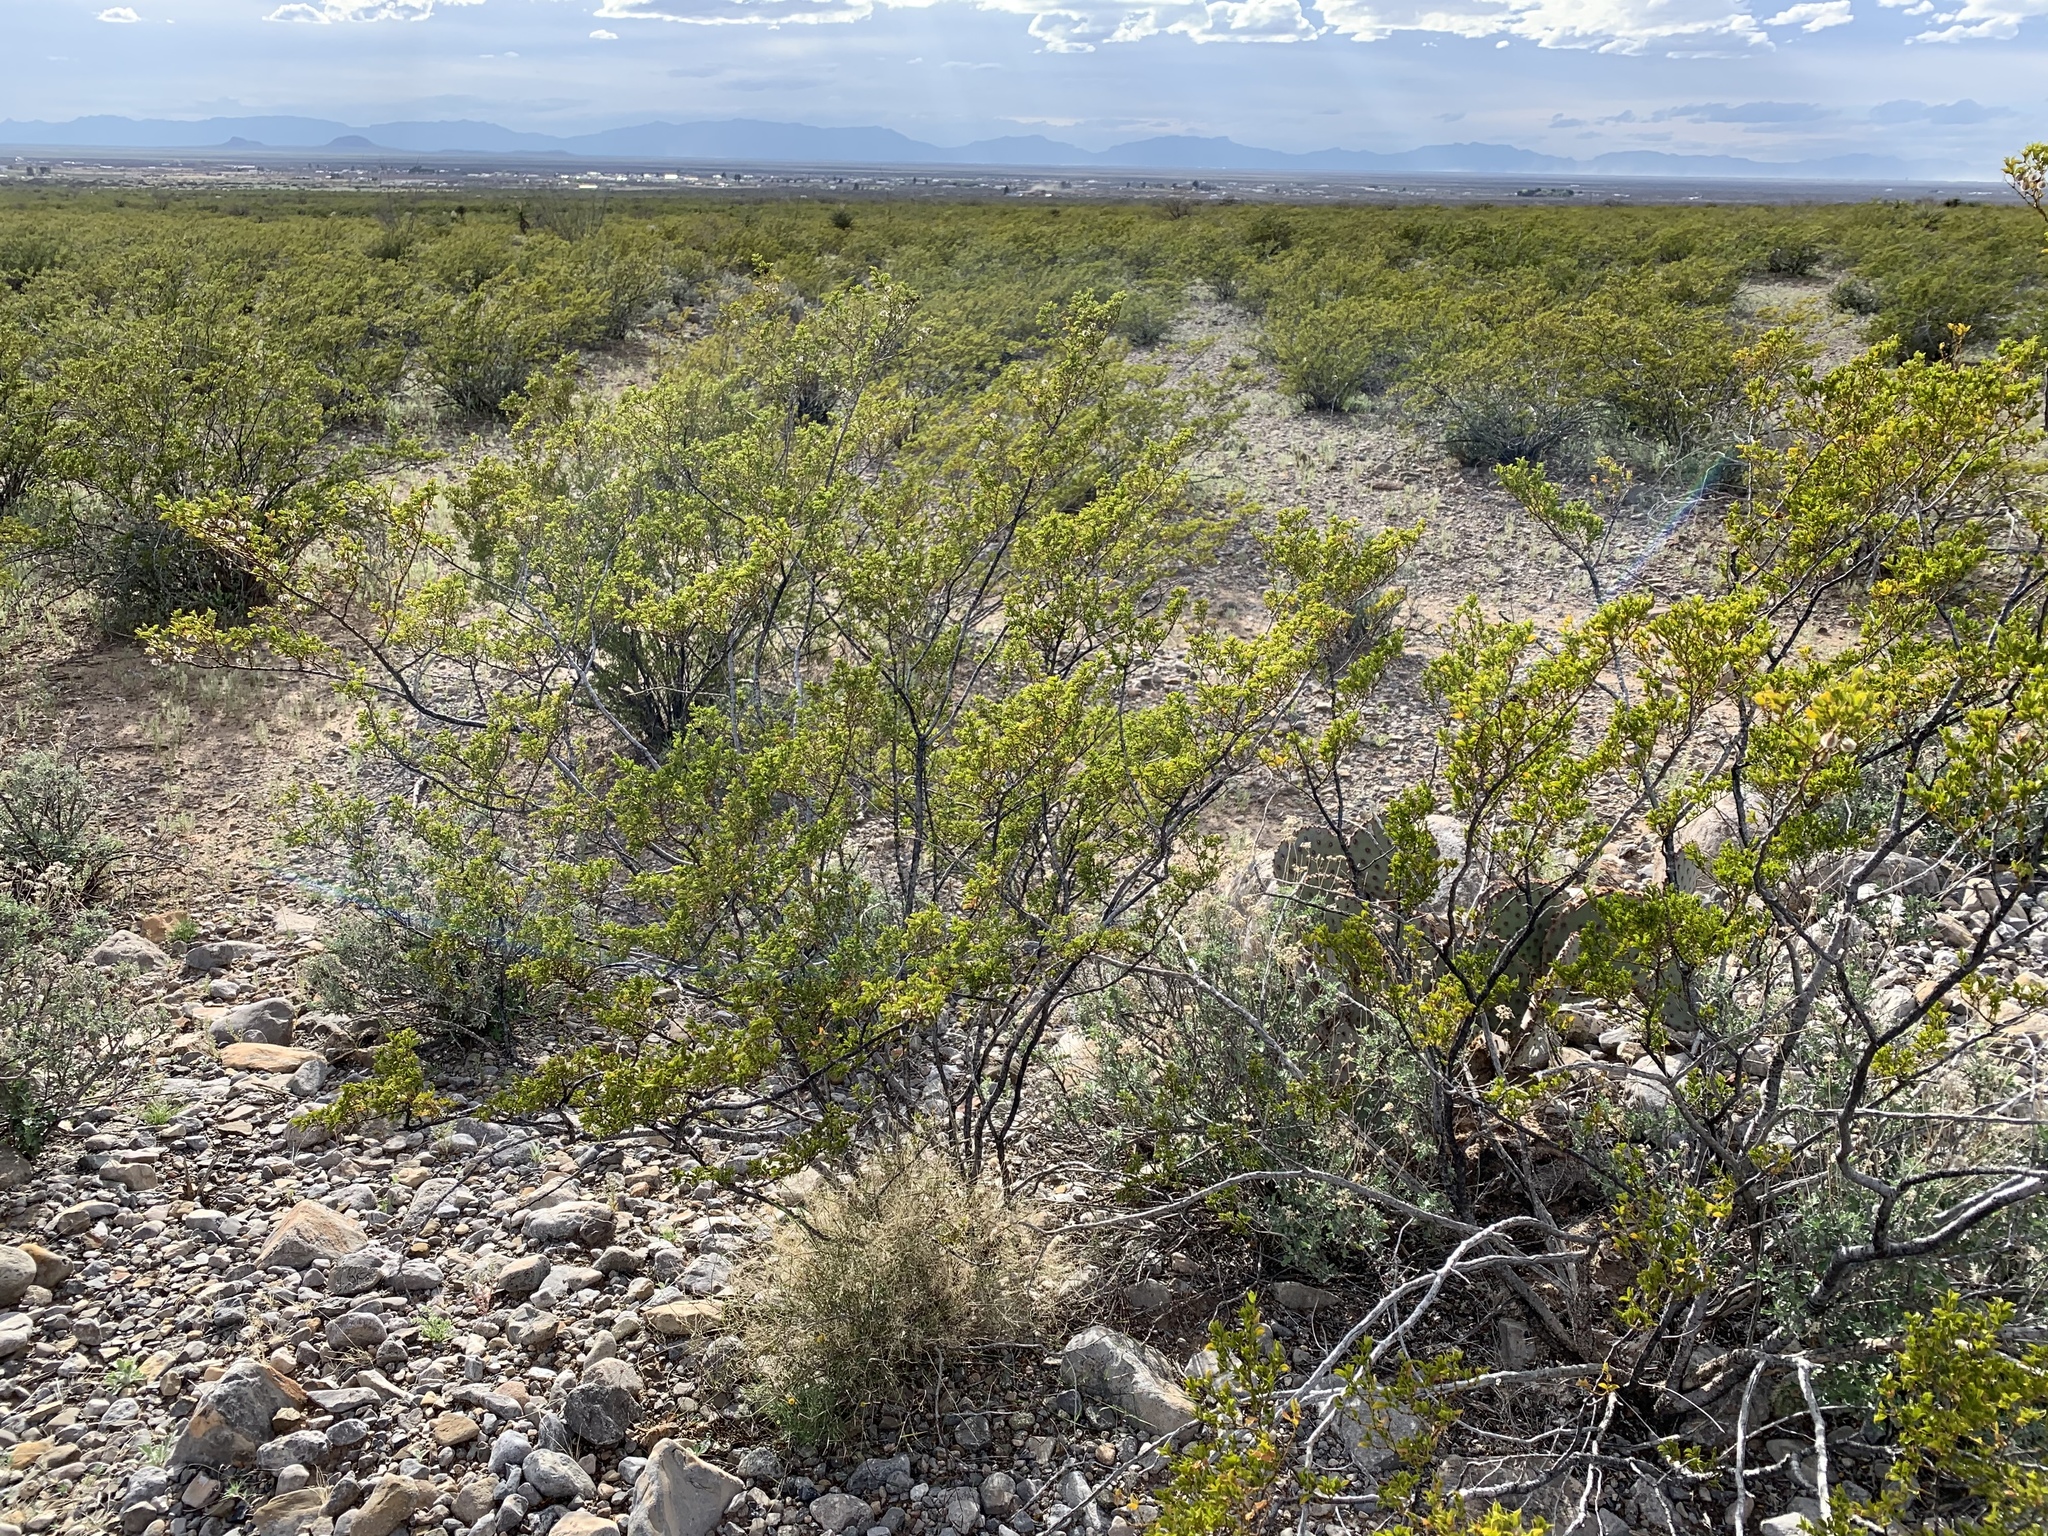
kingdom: Plantae
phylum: Tracheophyta
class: Magnoliopsida
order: Zygophyllales
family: Zygophyllaceae
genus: Larrea
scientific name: Larrea tridentata
